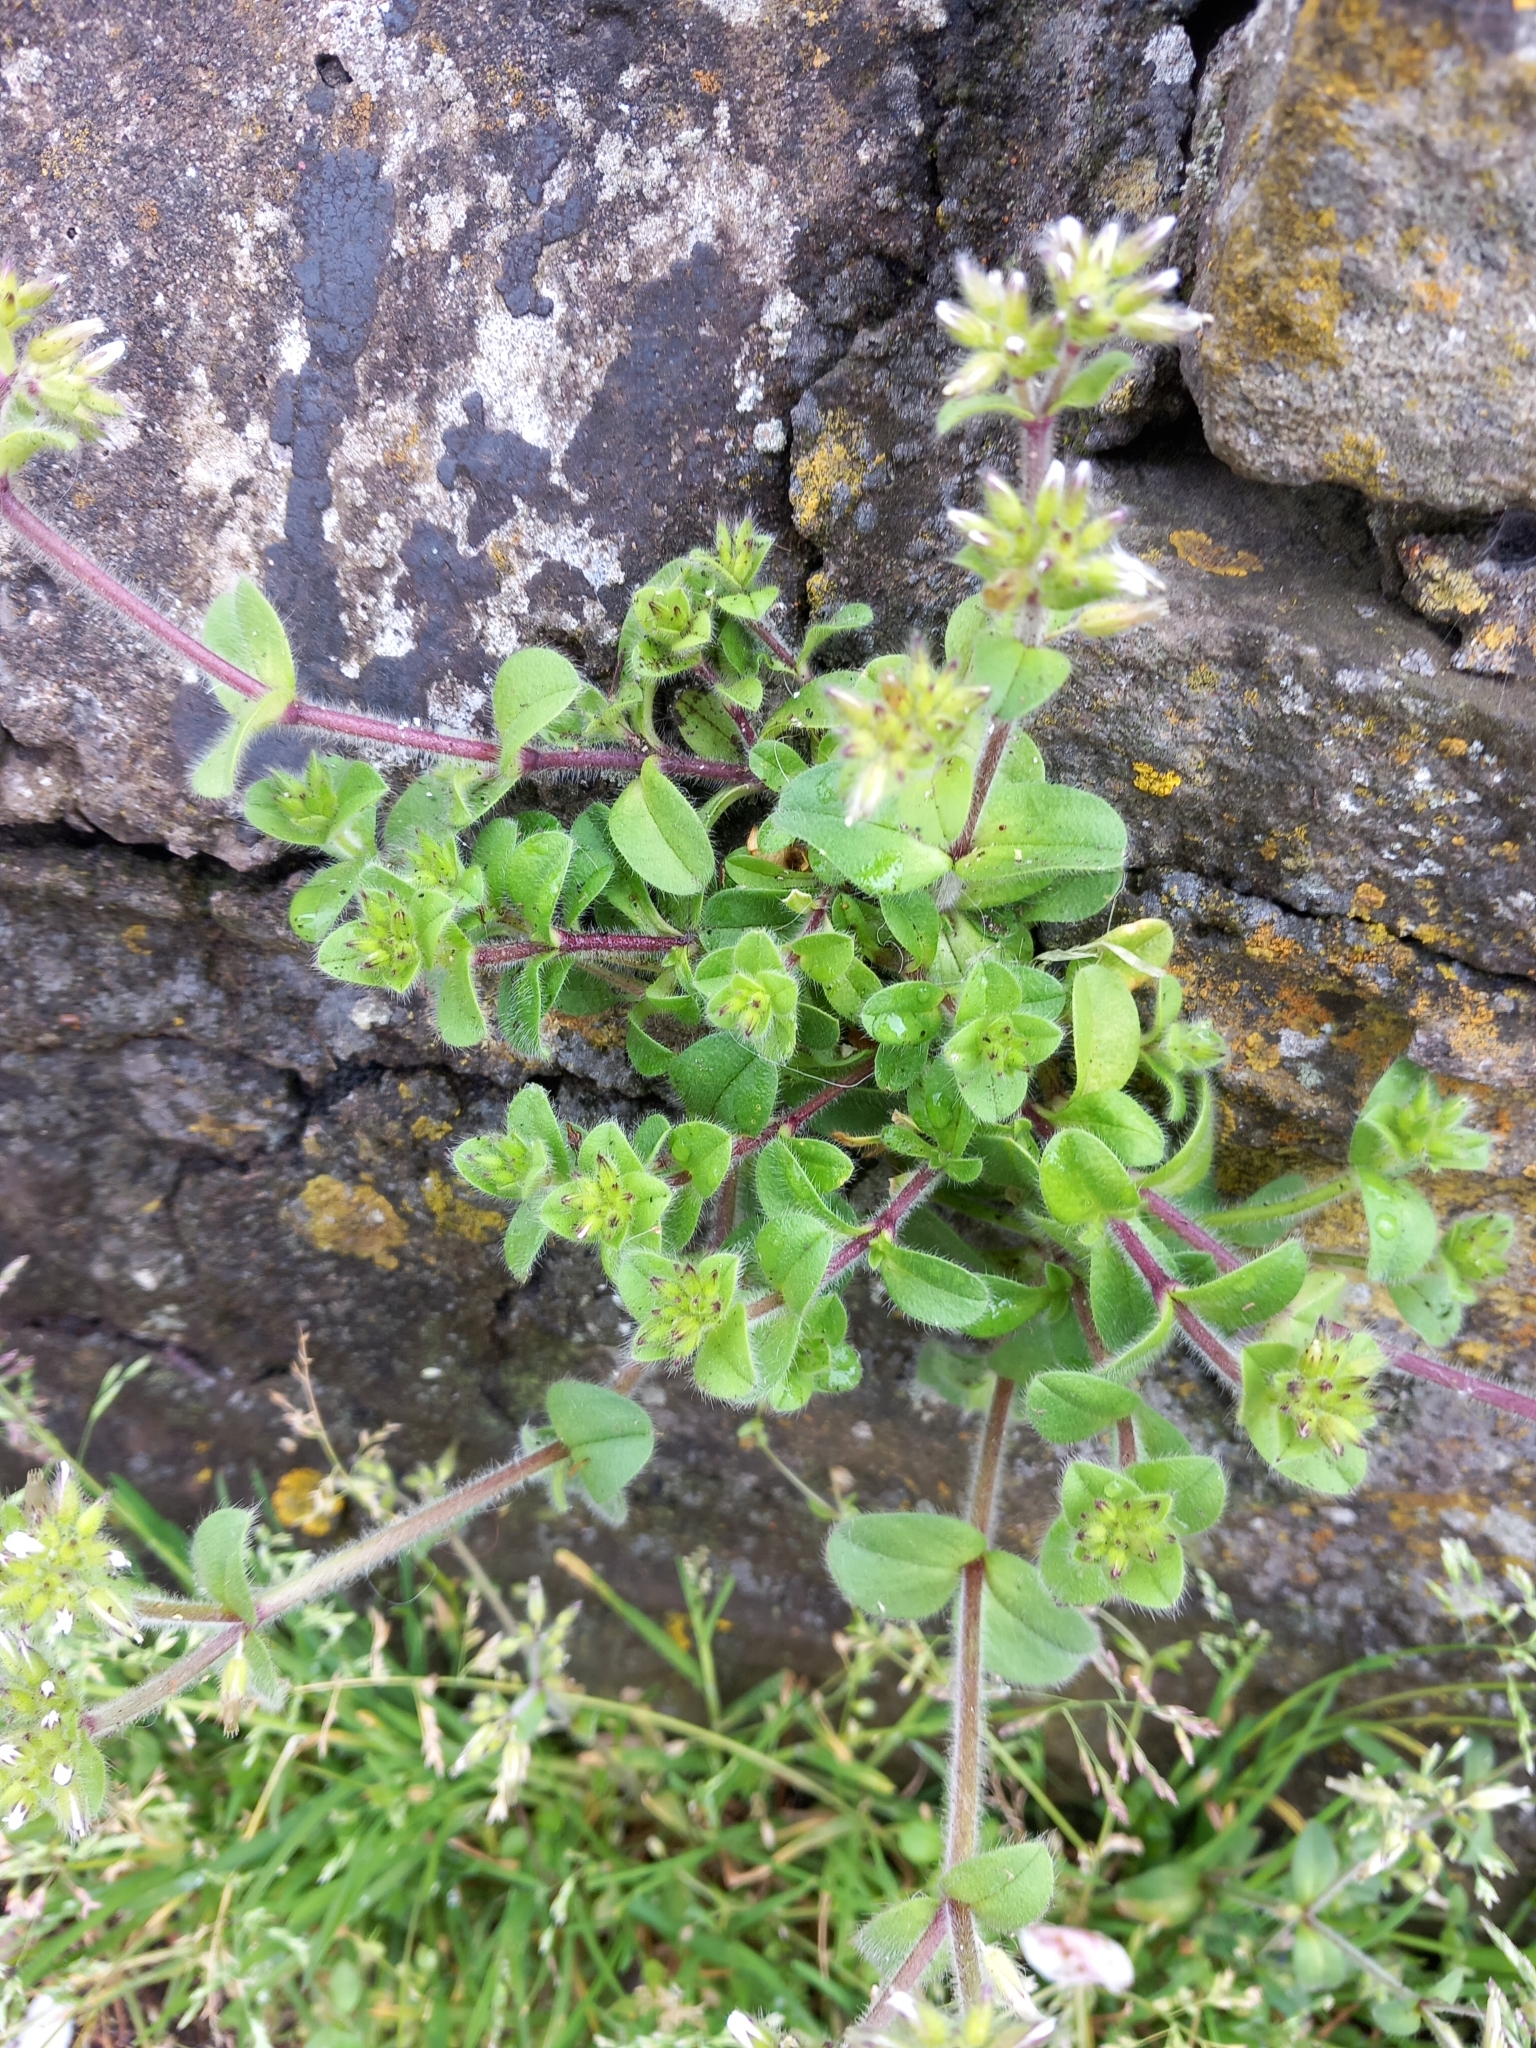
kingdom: Plantae
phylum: Tracheophyta
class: Magnoliopsida
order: Caryophyllales
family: Caryophyllaceae
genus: Cerastium
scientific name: Cerastium glomeratum
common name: Sticky chickweed
